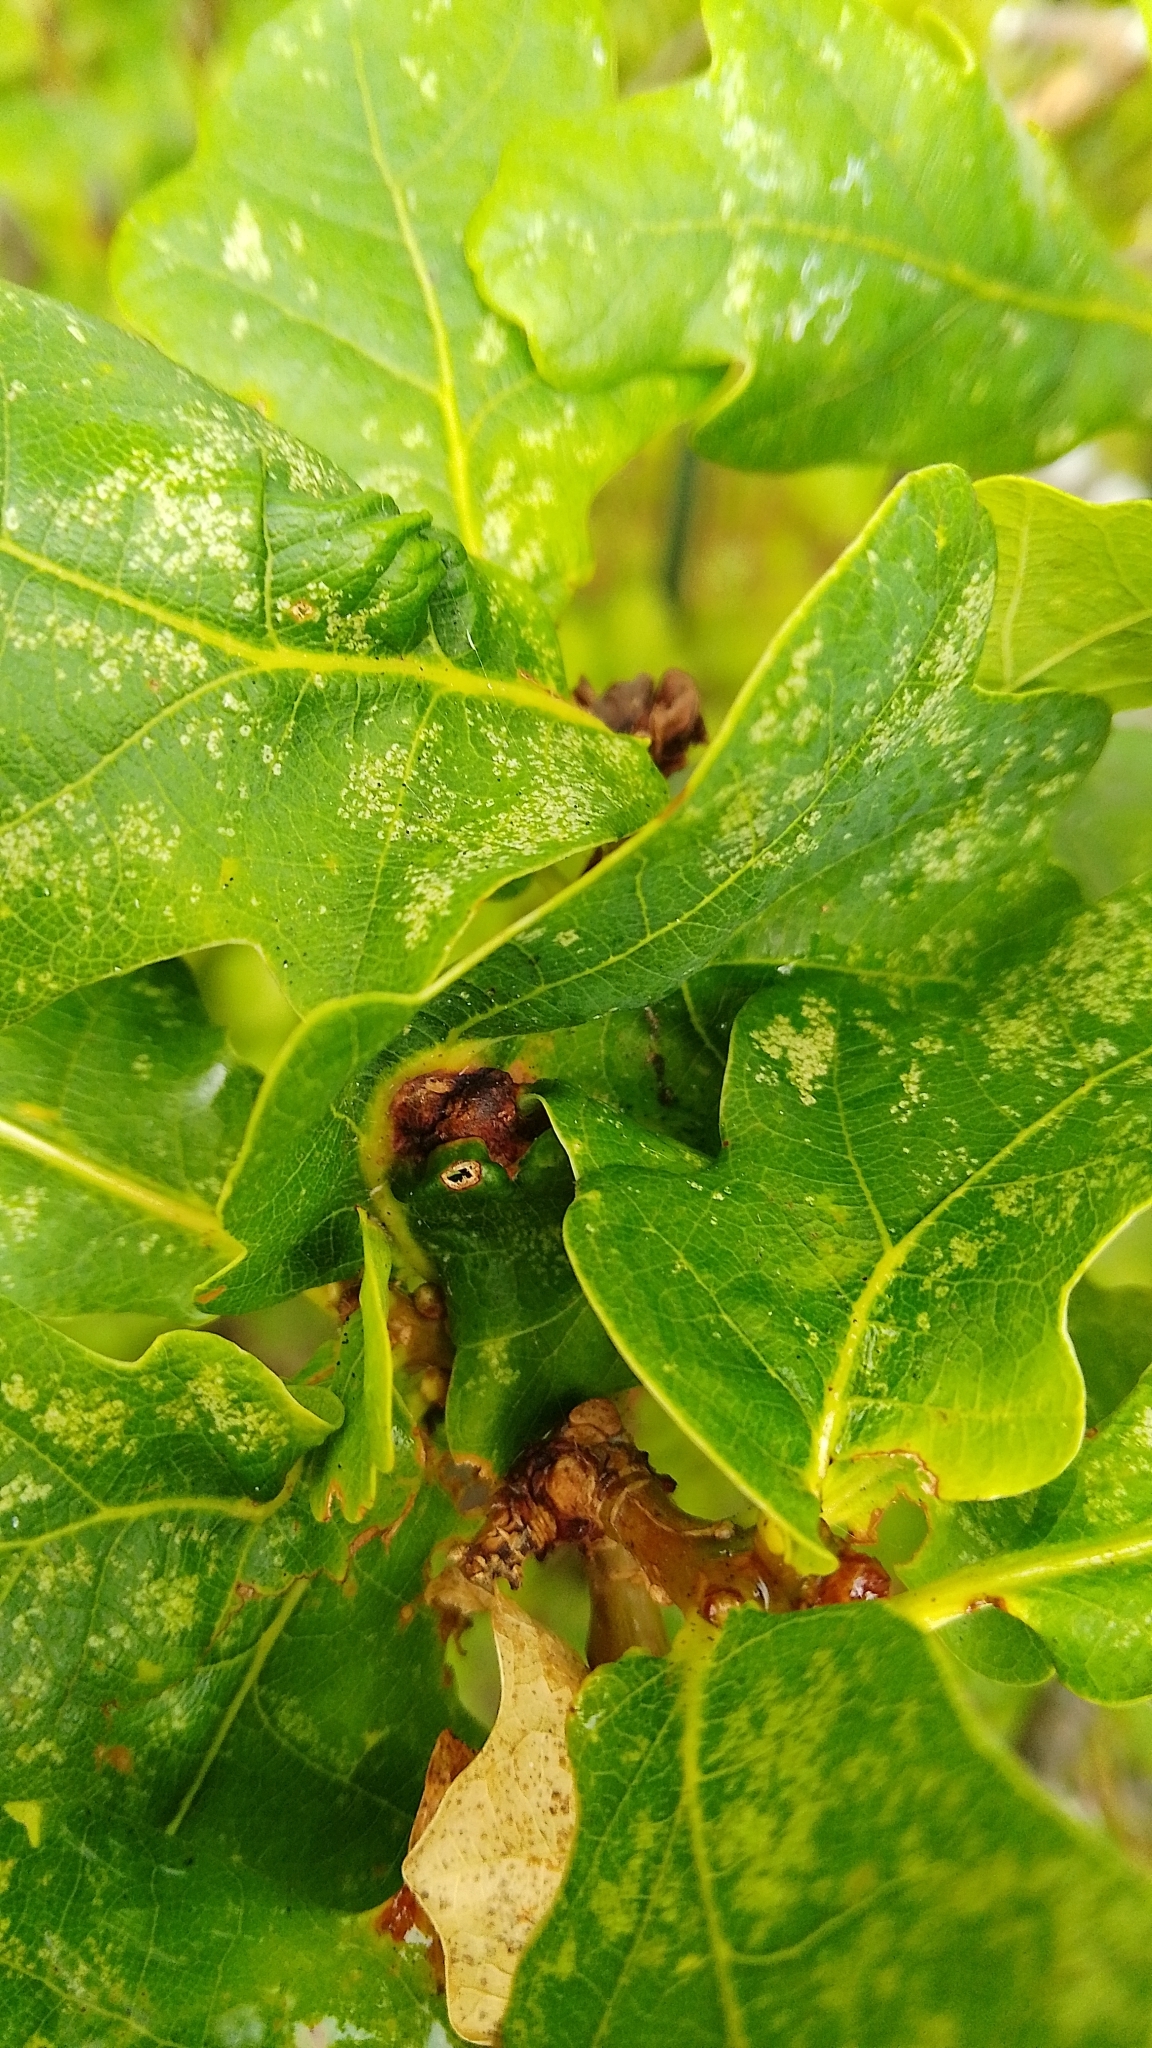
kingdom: Animalia
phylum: Arthropoda
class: Insecta
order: Hymenoptera
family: Cynipidae
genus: Andricus
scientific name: Andricus curvator
